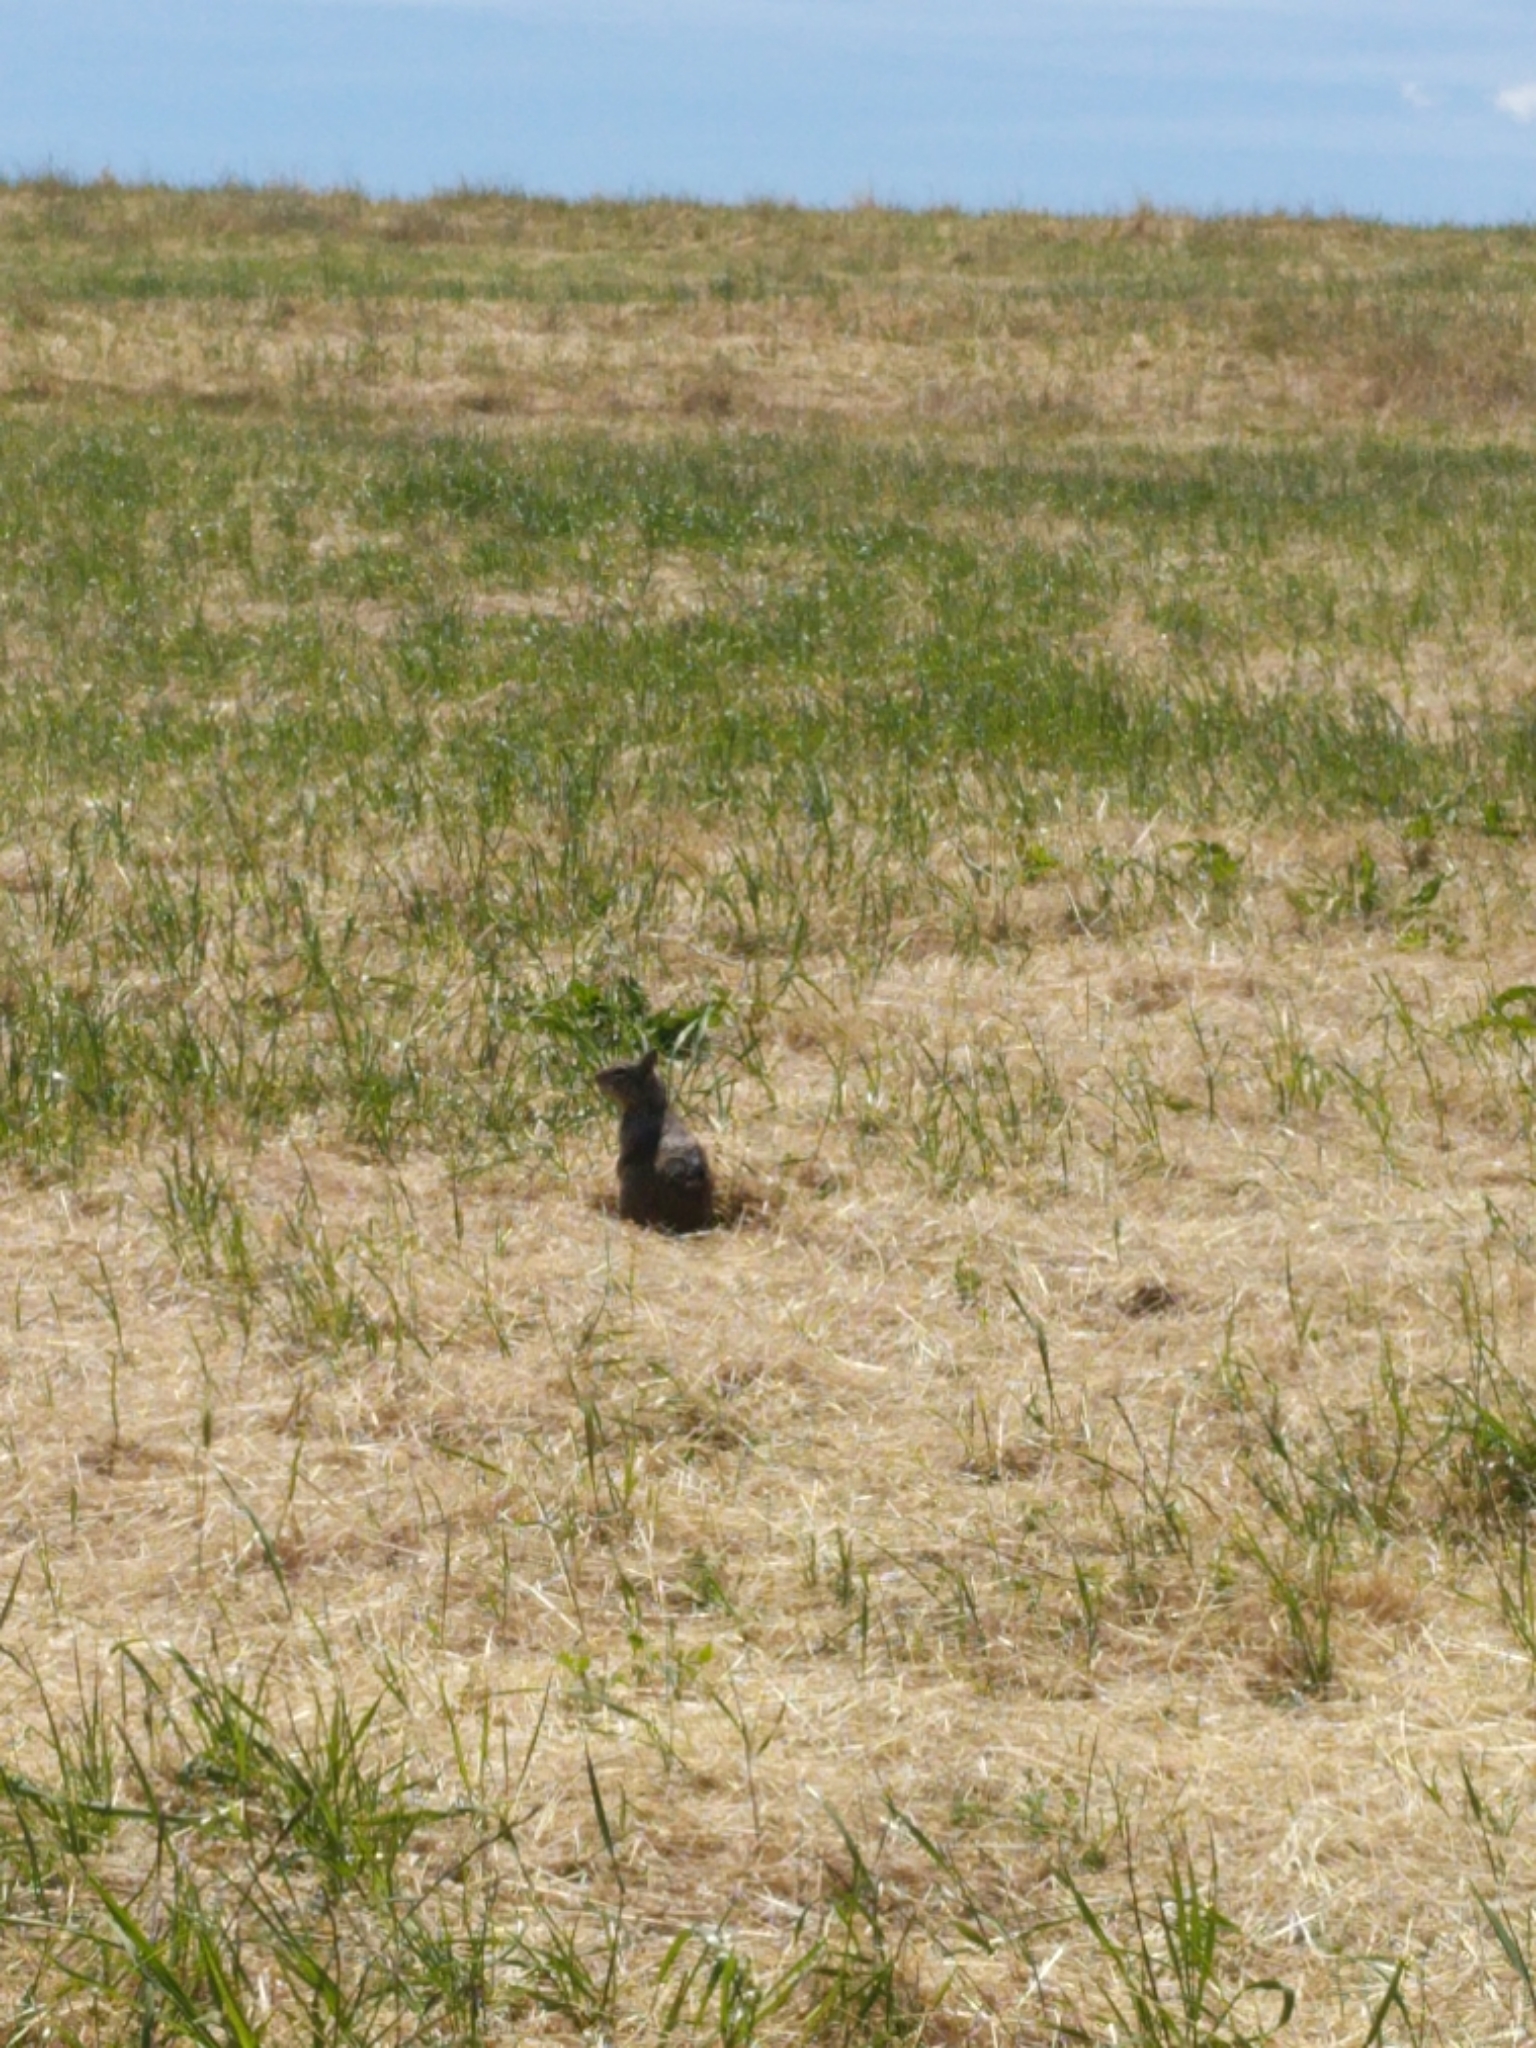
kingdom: Animalia
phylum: Chordata
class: Mammalia
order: Rodentia
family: Sciuridae
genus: Otospermophilus
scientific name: Otospermophilus beecheyi
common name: California ground squirrel
